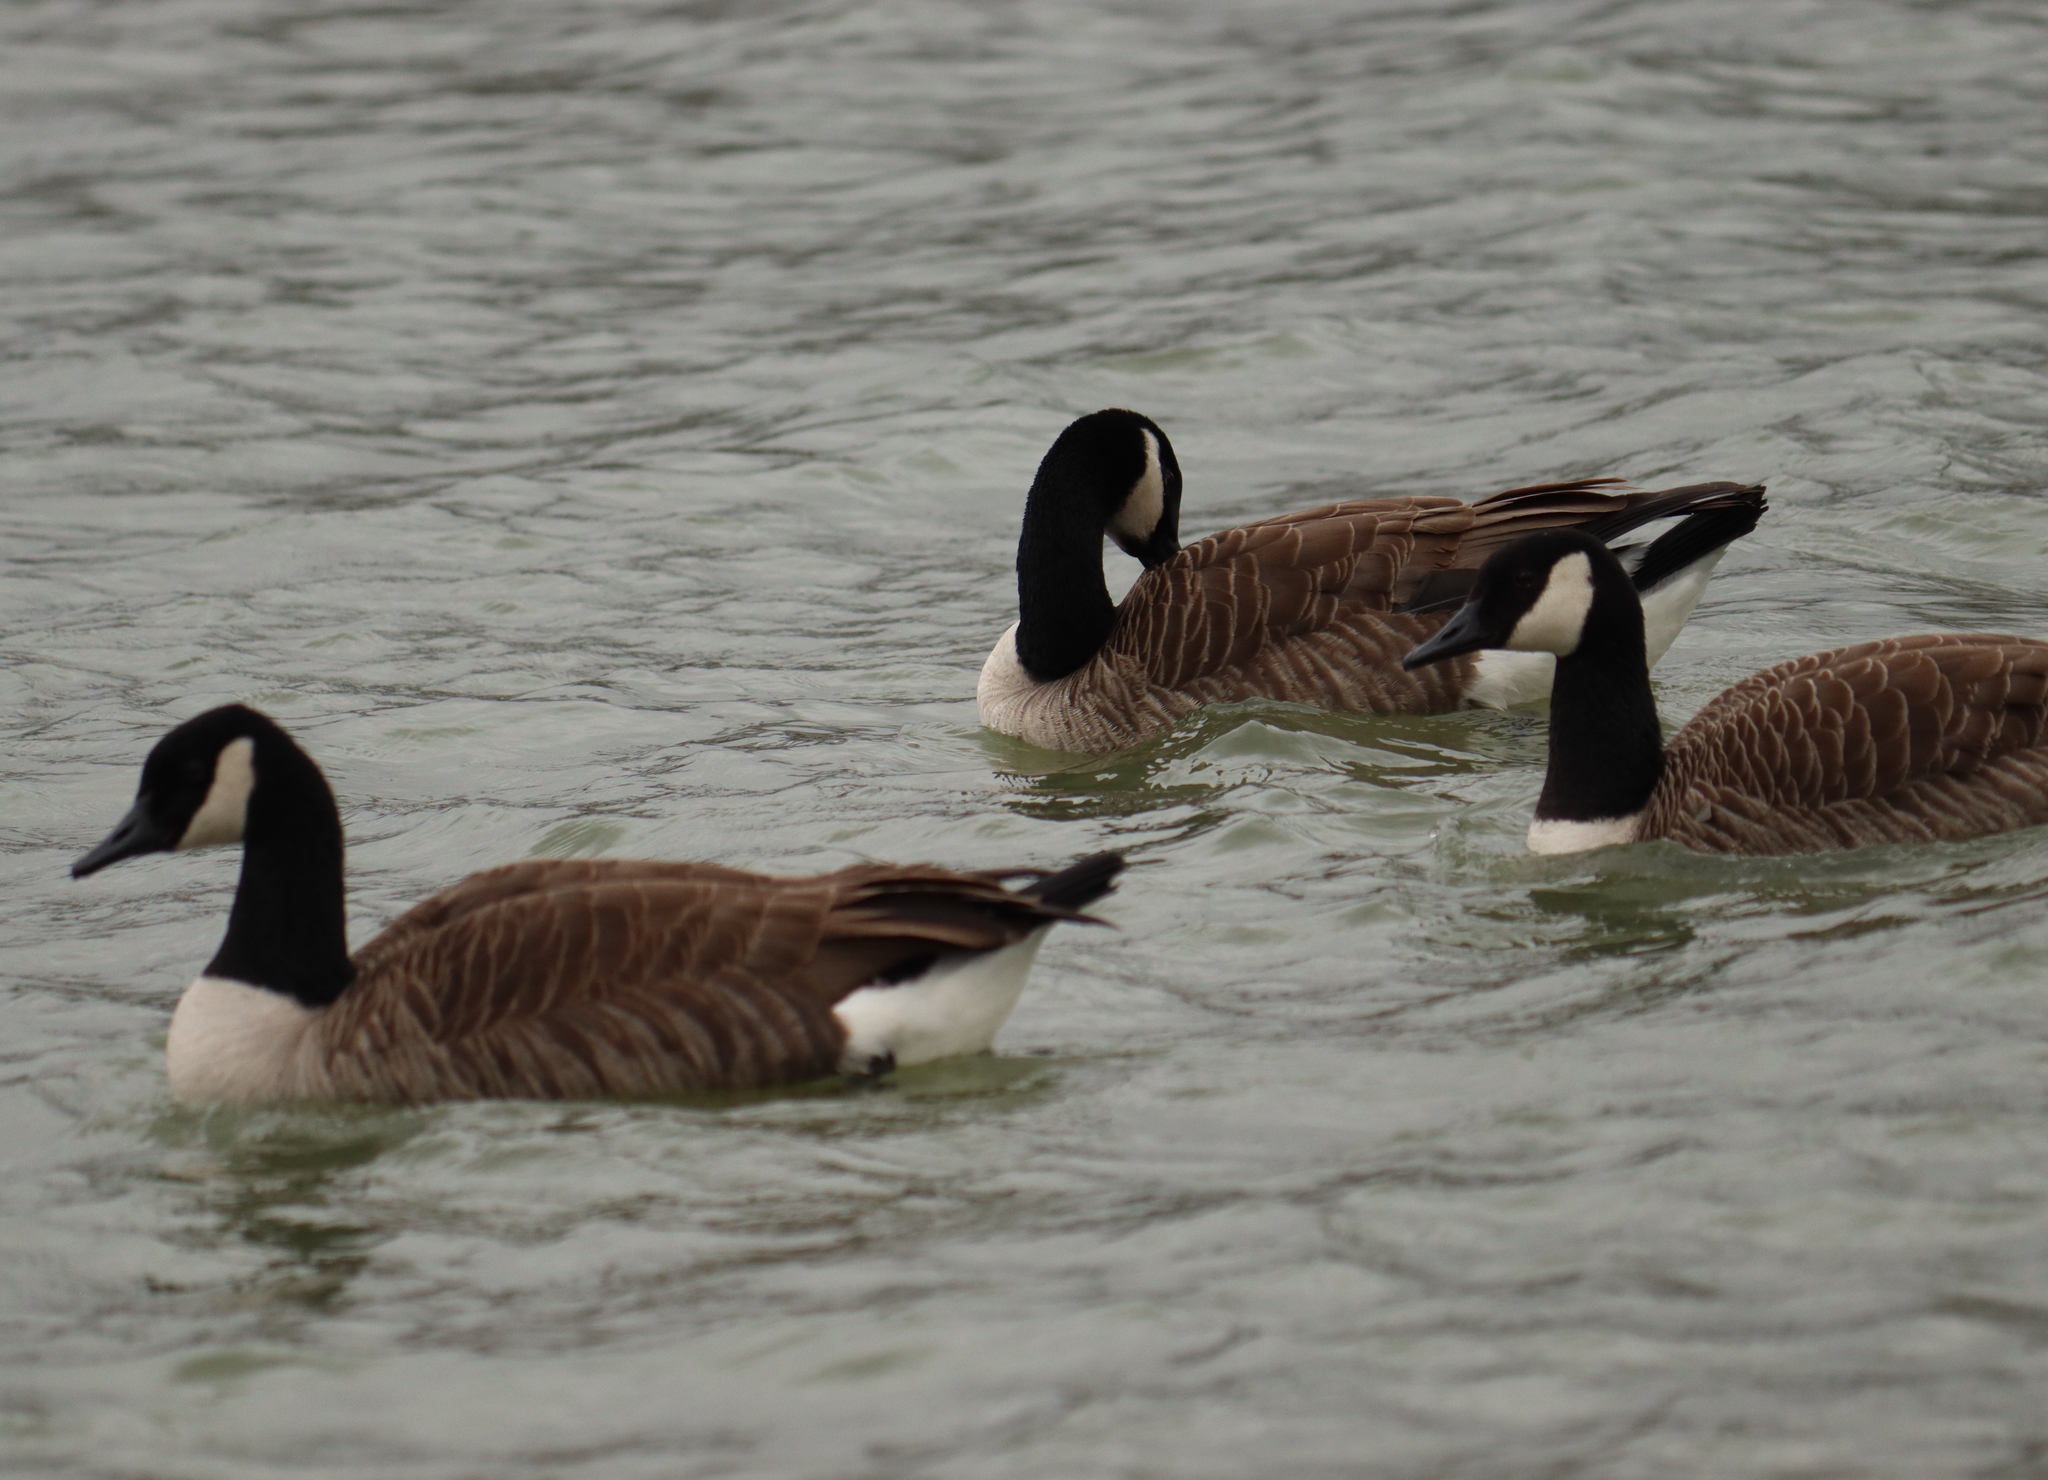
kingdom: Animalia
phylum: Chordata
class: Aves
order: Anseriformes
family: Anatidae
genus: Branta
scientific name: Branta canadensis
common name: Canada goose
